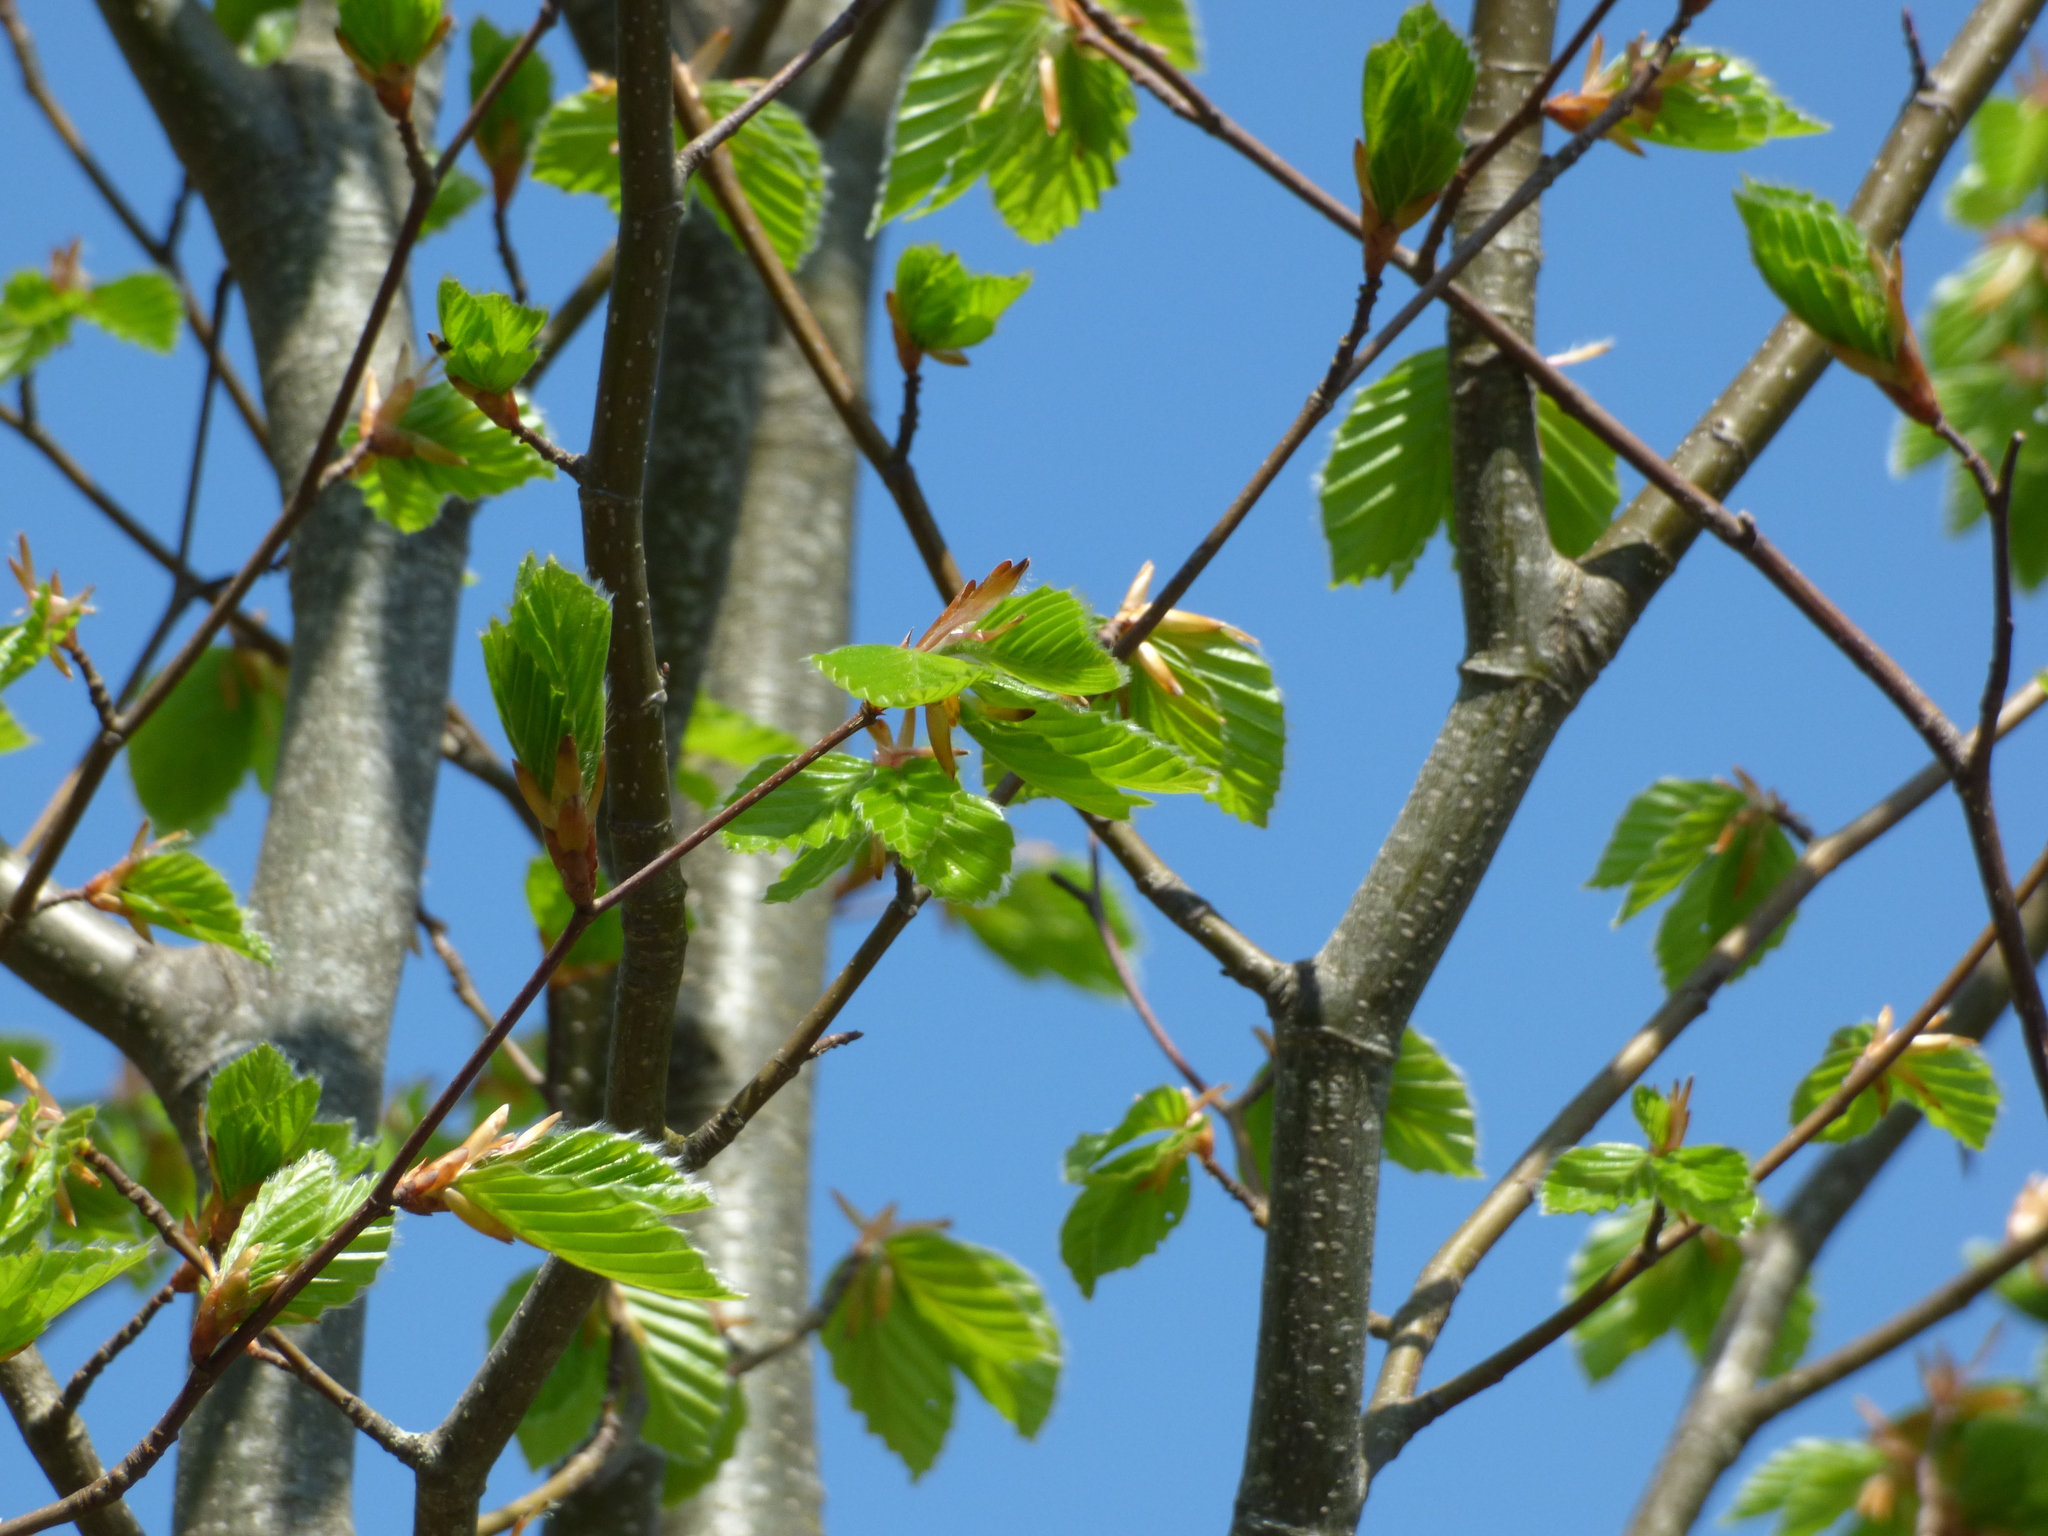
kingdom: Plantae
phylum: Tracheophyta
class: Magnoliopsida
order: Fagales
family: Betulaceae
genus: Carpinus
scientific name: Carpinus betulus
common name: Hornbeam
